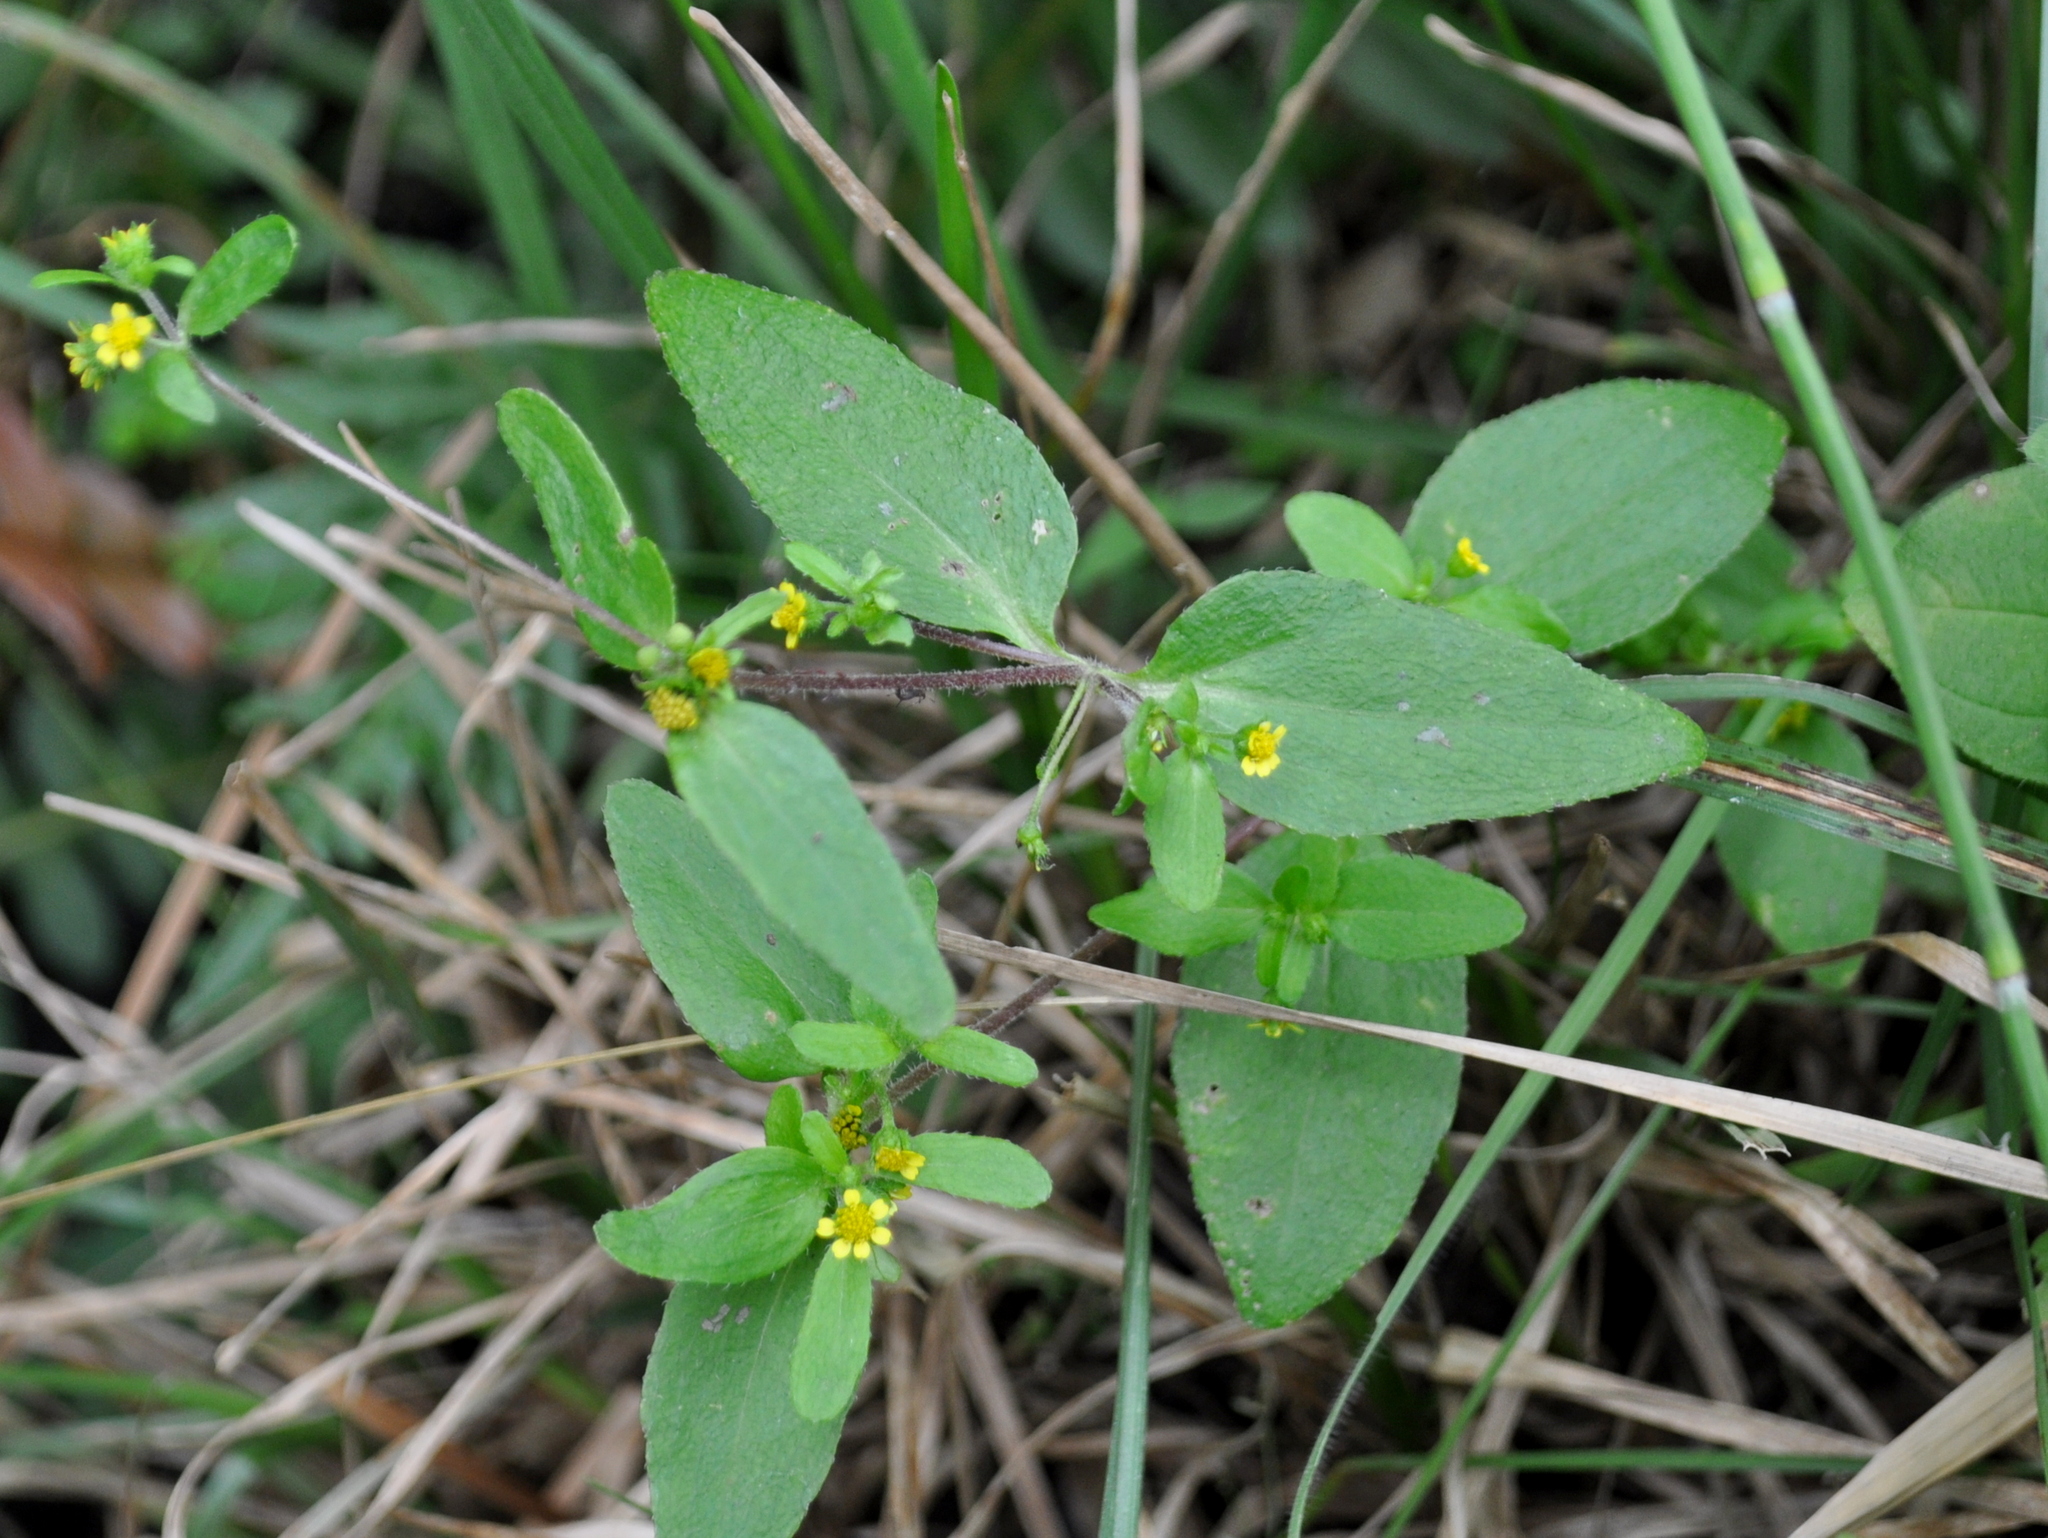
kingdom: Plantae
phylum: Tracheophyta
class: Magnoliopsida
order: Asterales
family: Asteraceae
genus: Jaegeria
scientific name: Jaegeria hirta
